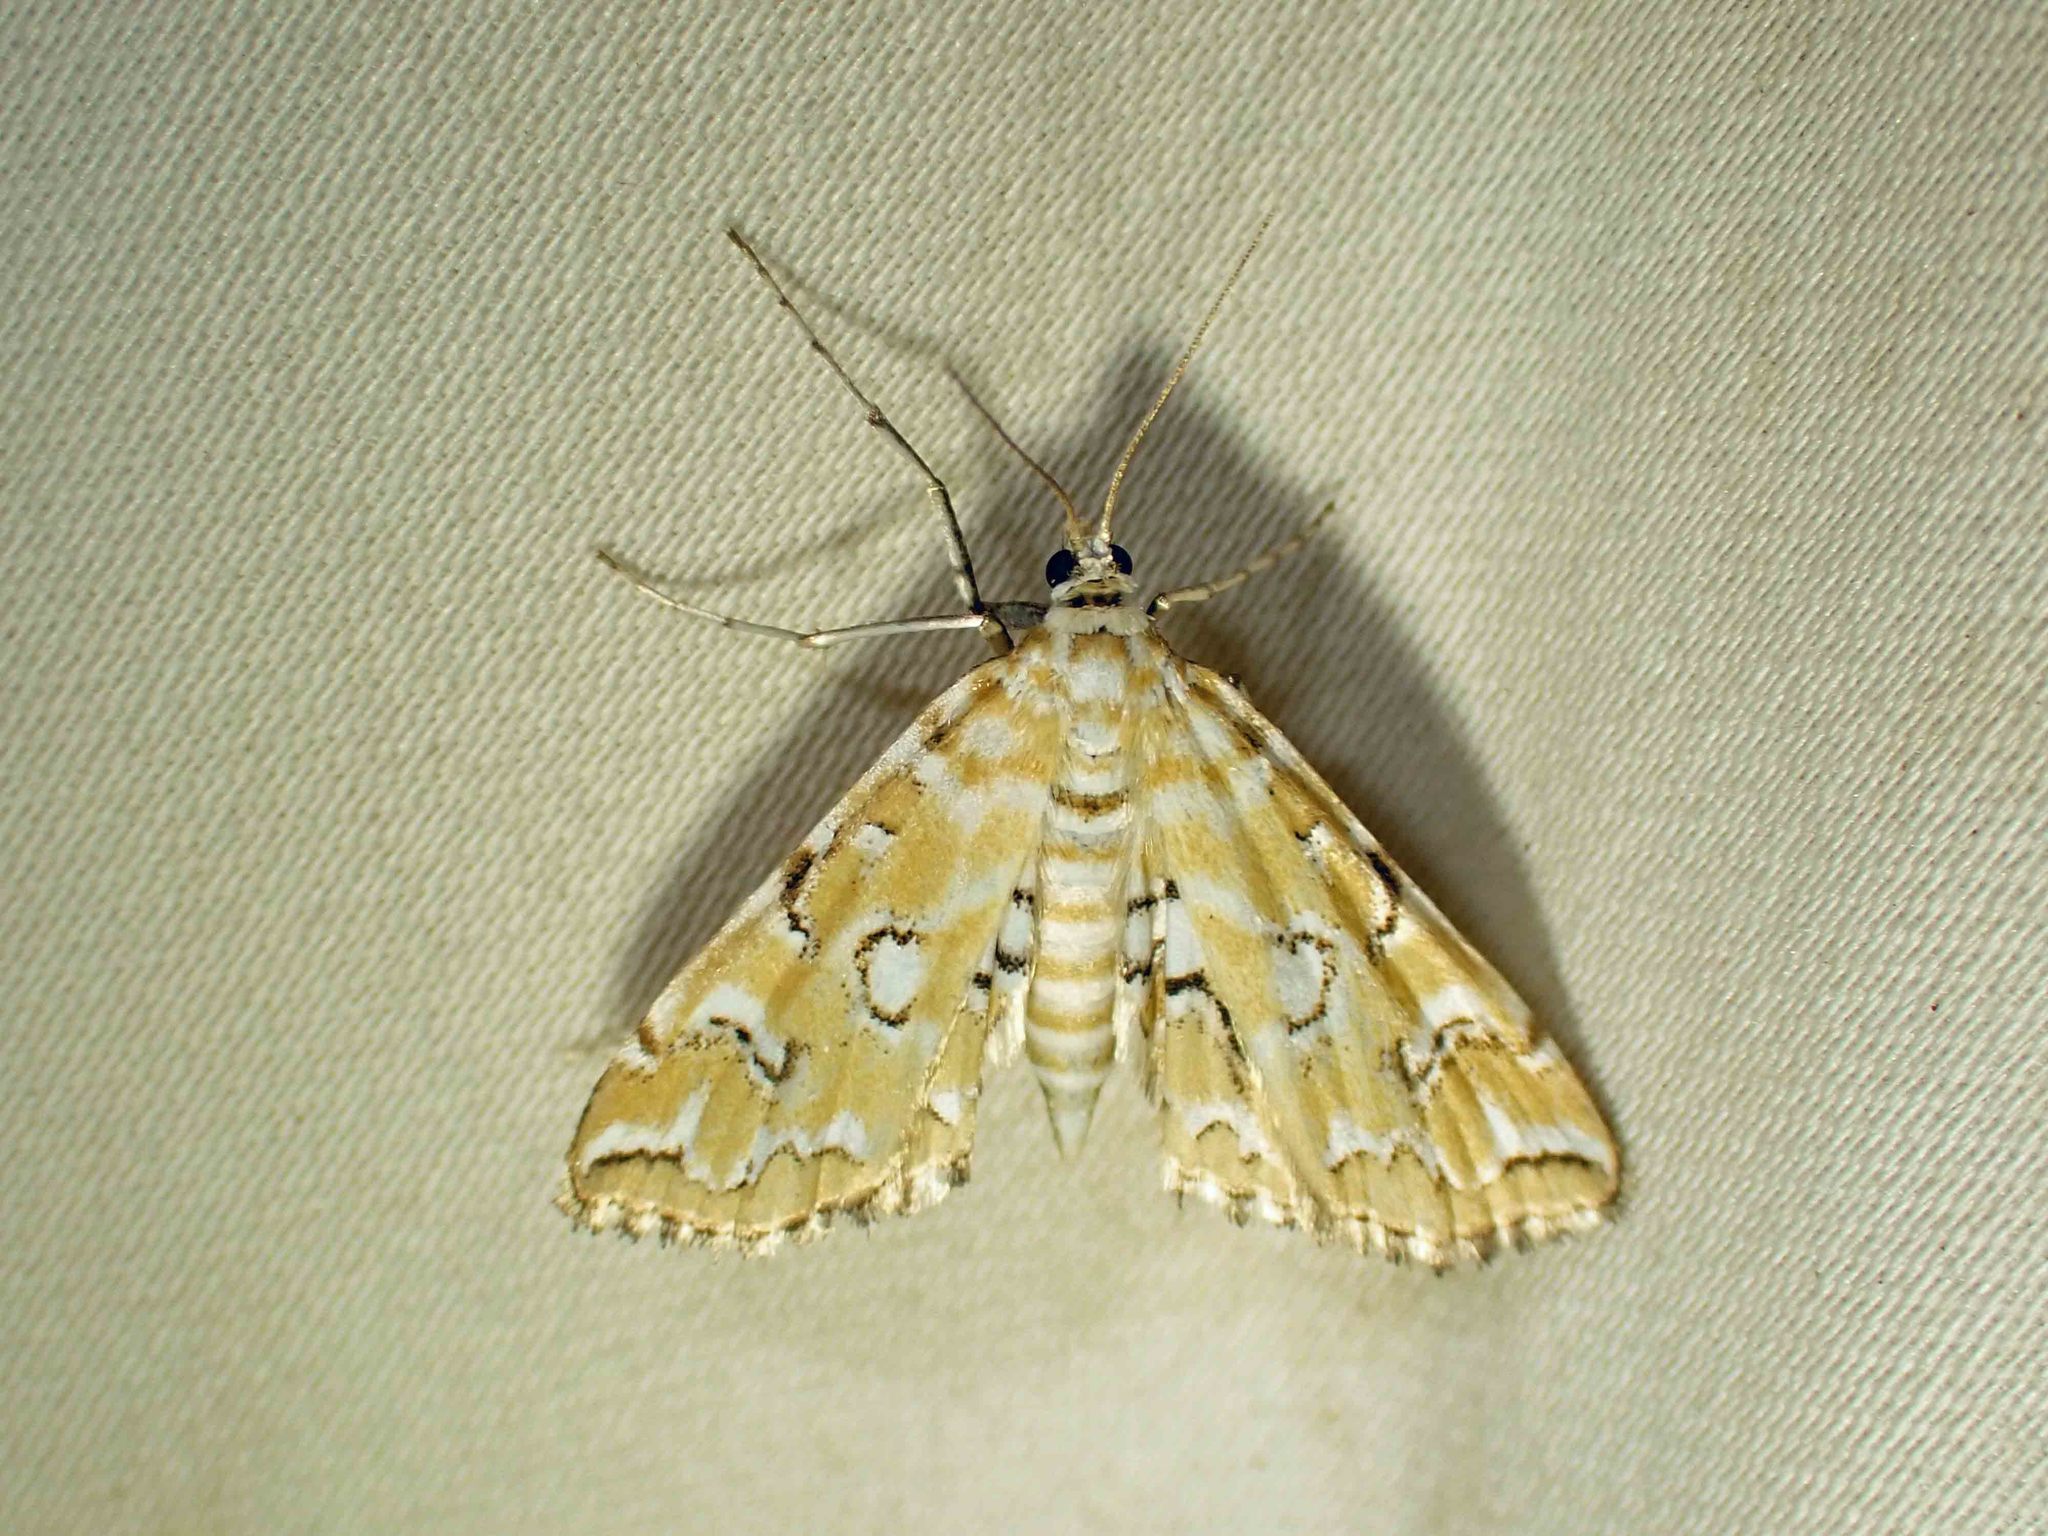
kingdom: Animalia
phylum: Arthropoda
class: Insecta
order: Lepidoptera
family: Crambidae
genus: Elophila
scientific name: Elophila icciusalis
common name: Pondside pyralid moth
